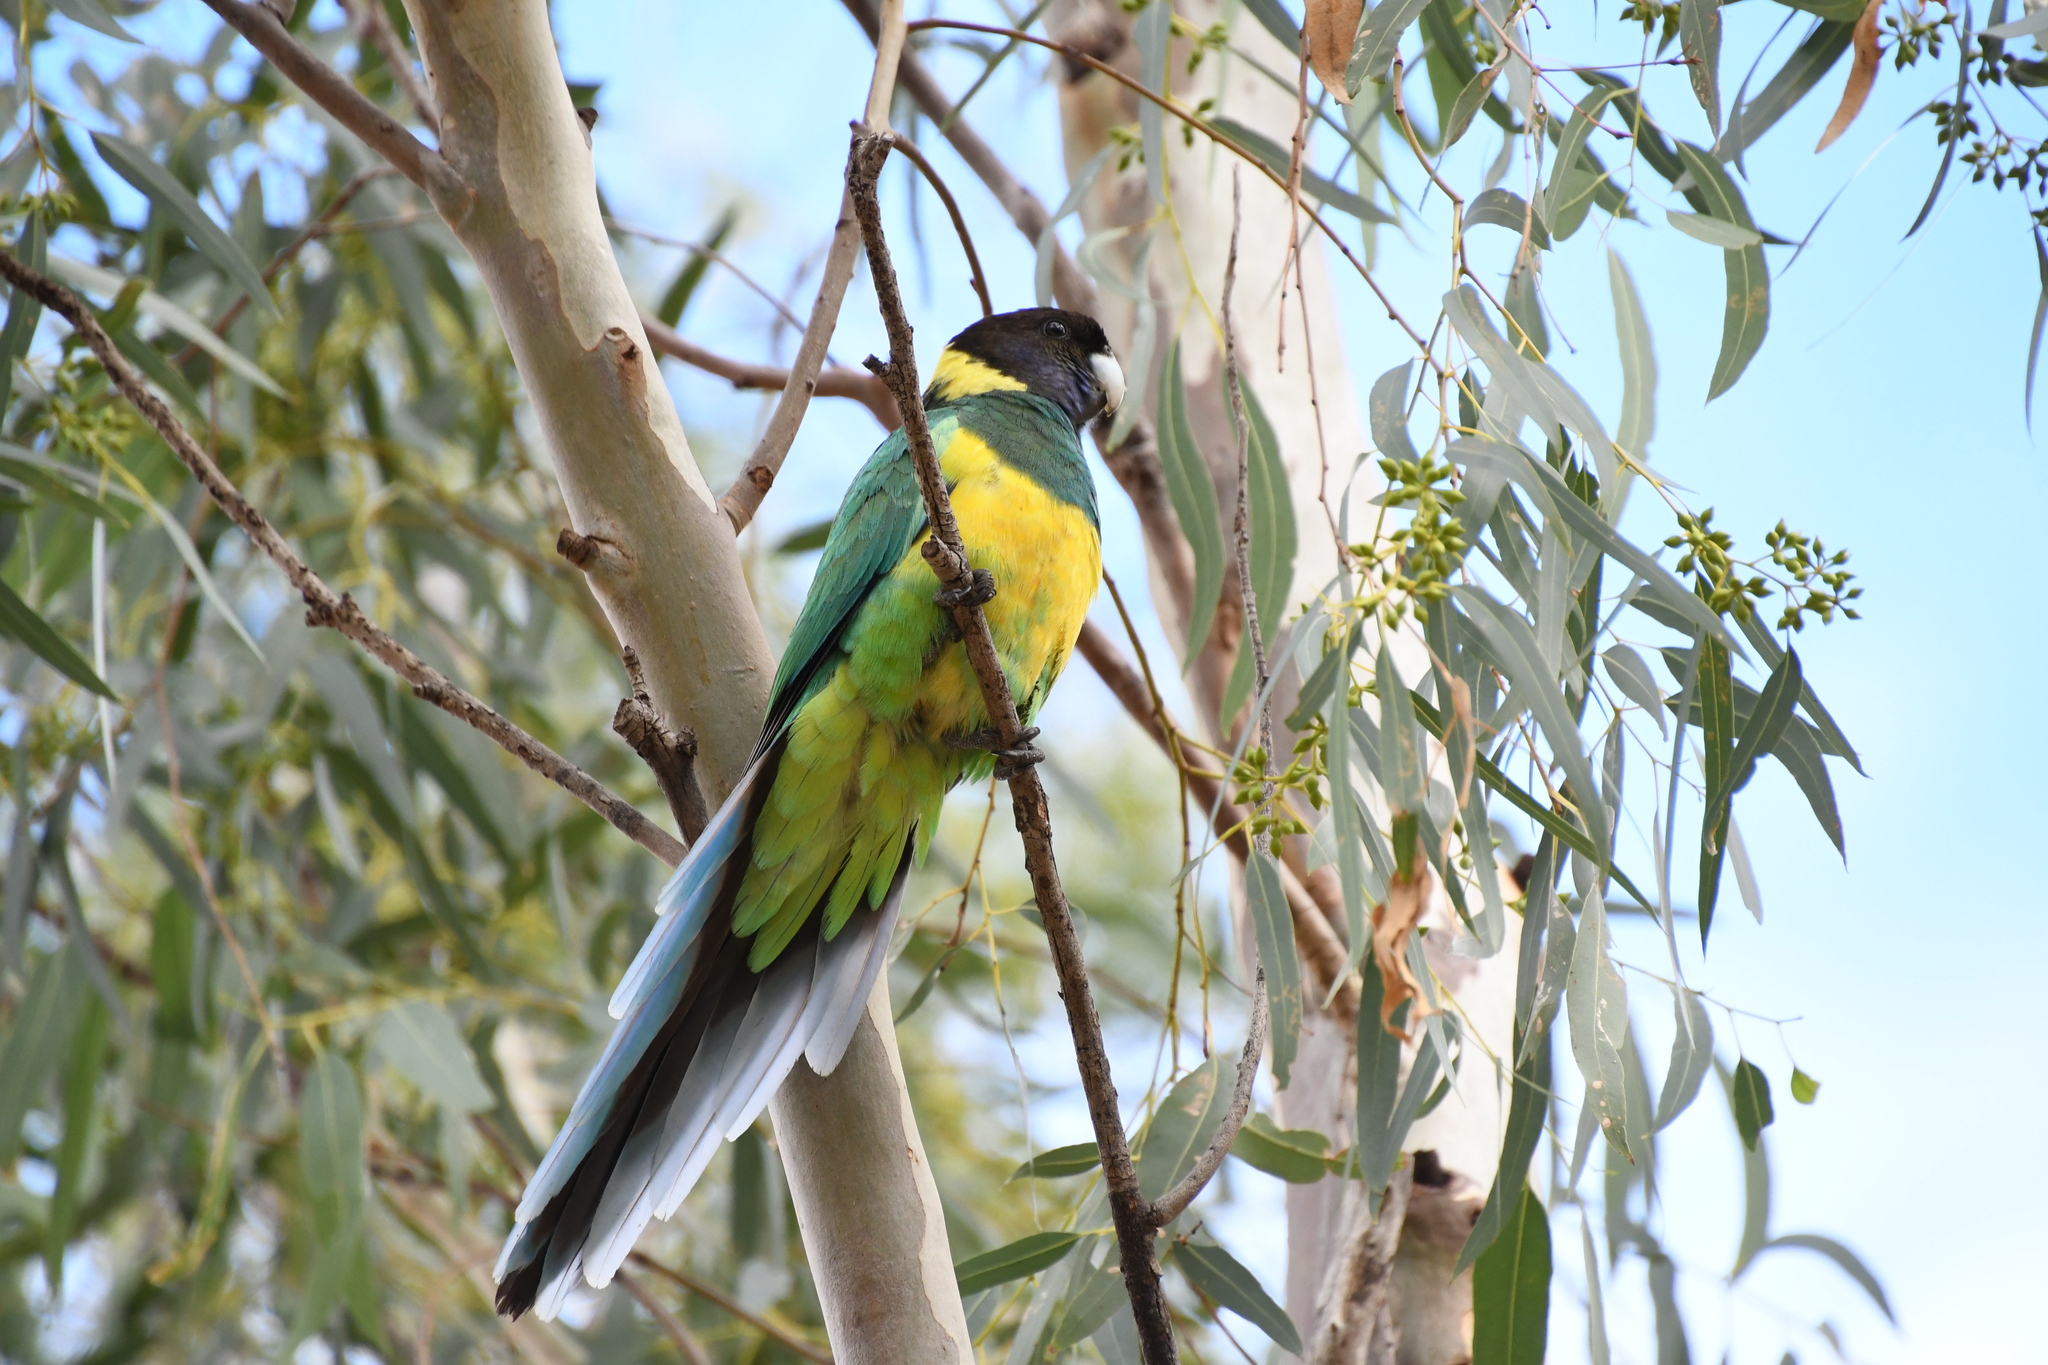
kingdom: Animalia
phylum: Chordata
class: Aves
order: Psittaciformes
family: Psittacidae
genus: Barnardius
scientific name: Barnardius zonarius
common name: Australian ringneck
